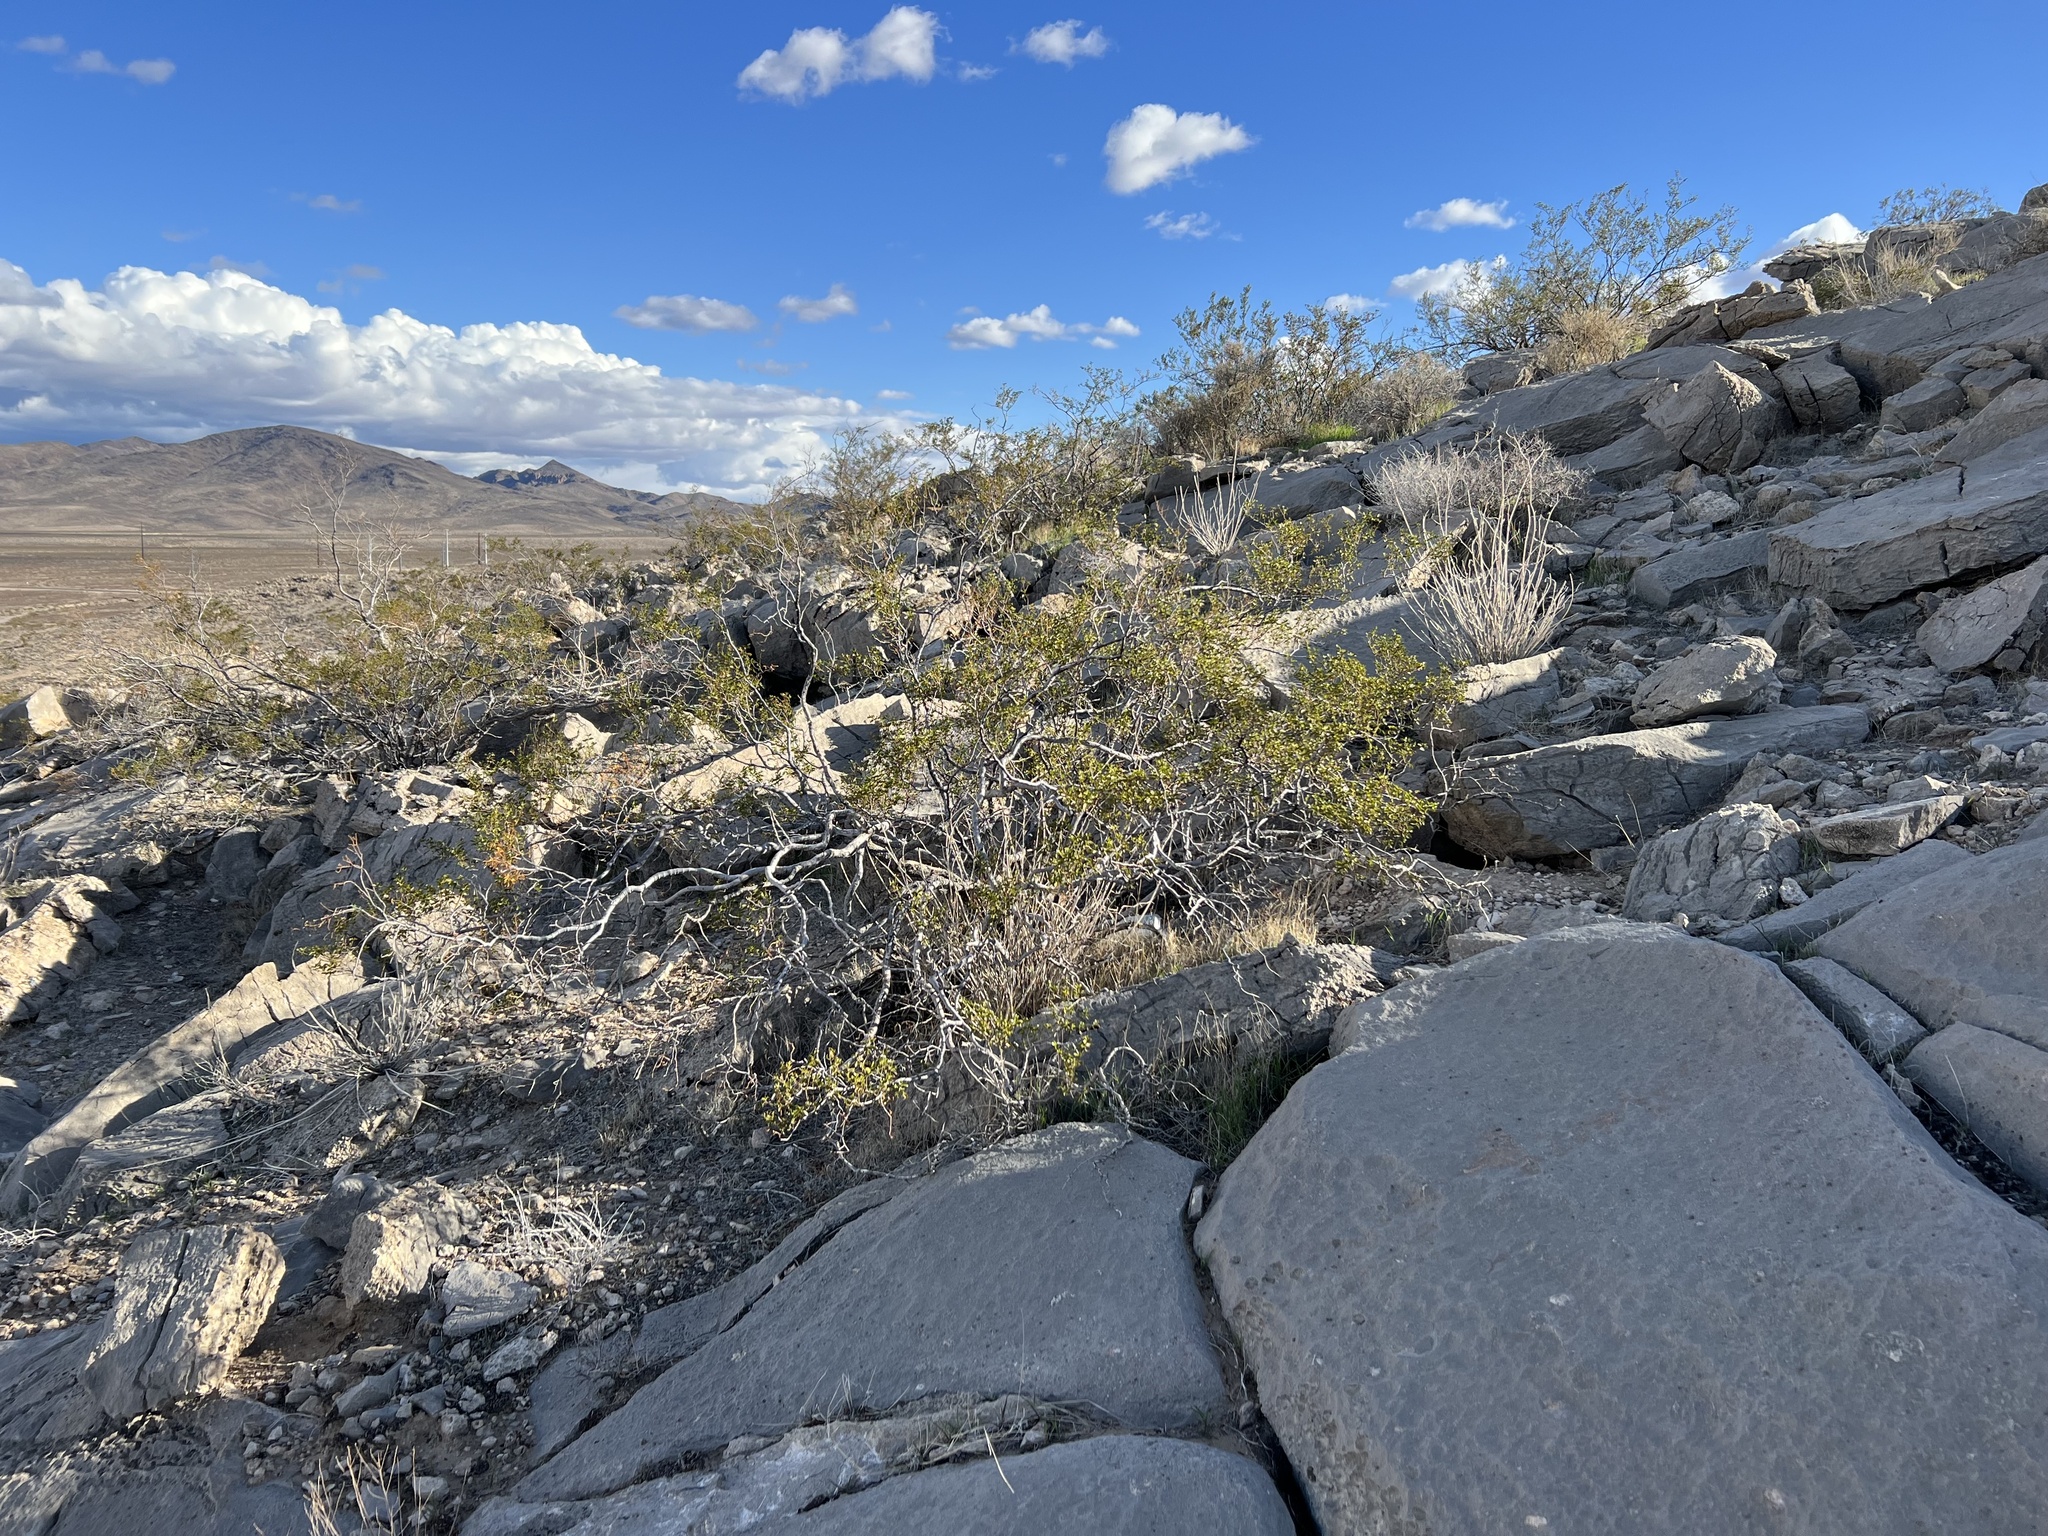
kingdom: Plantae
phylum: Tracheophyta
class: Magnoliopsida
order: Zygophyllales
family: Zygophyllaceae
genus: Larrea
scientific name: Larrea tridentata
